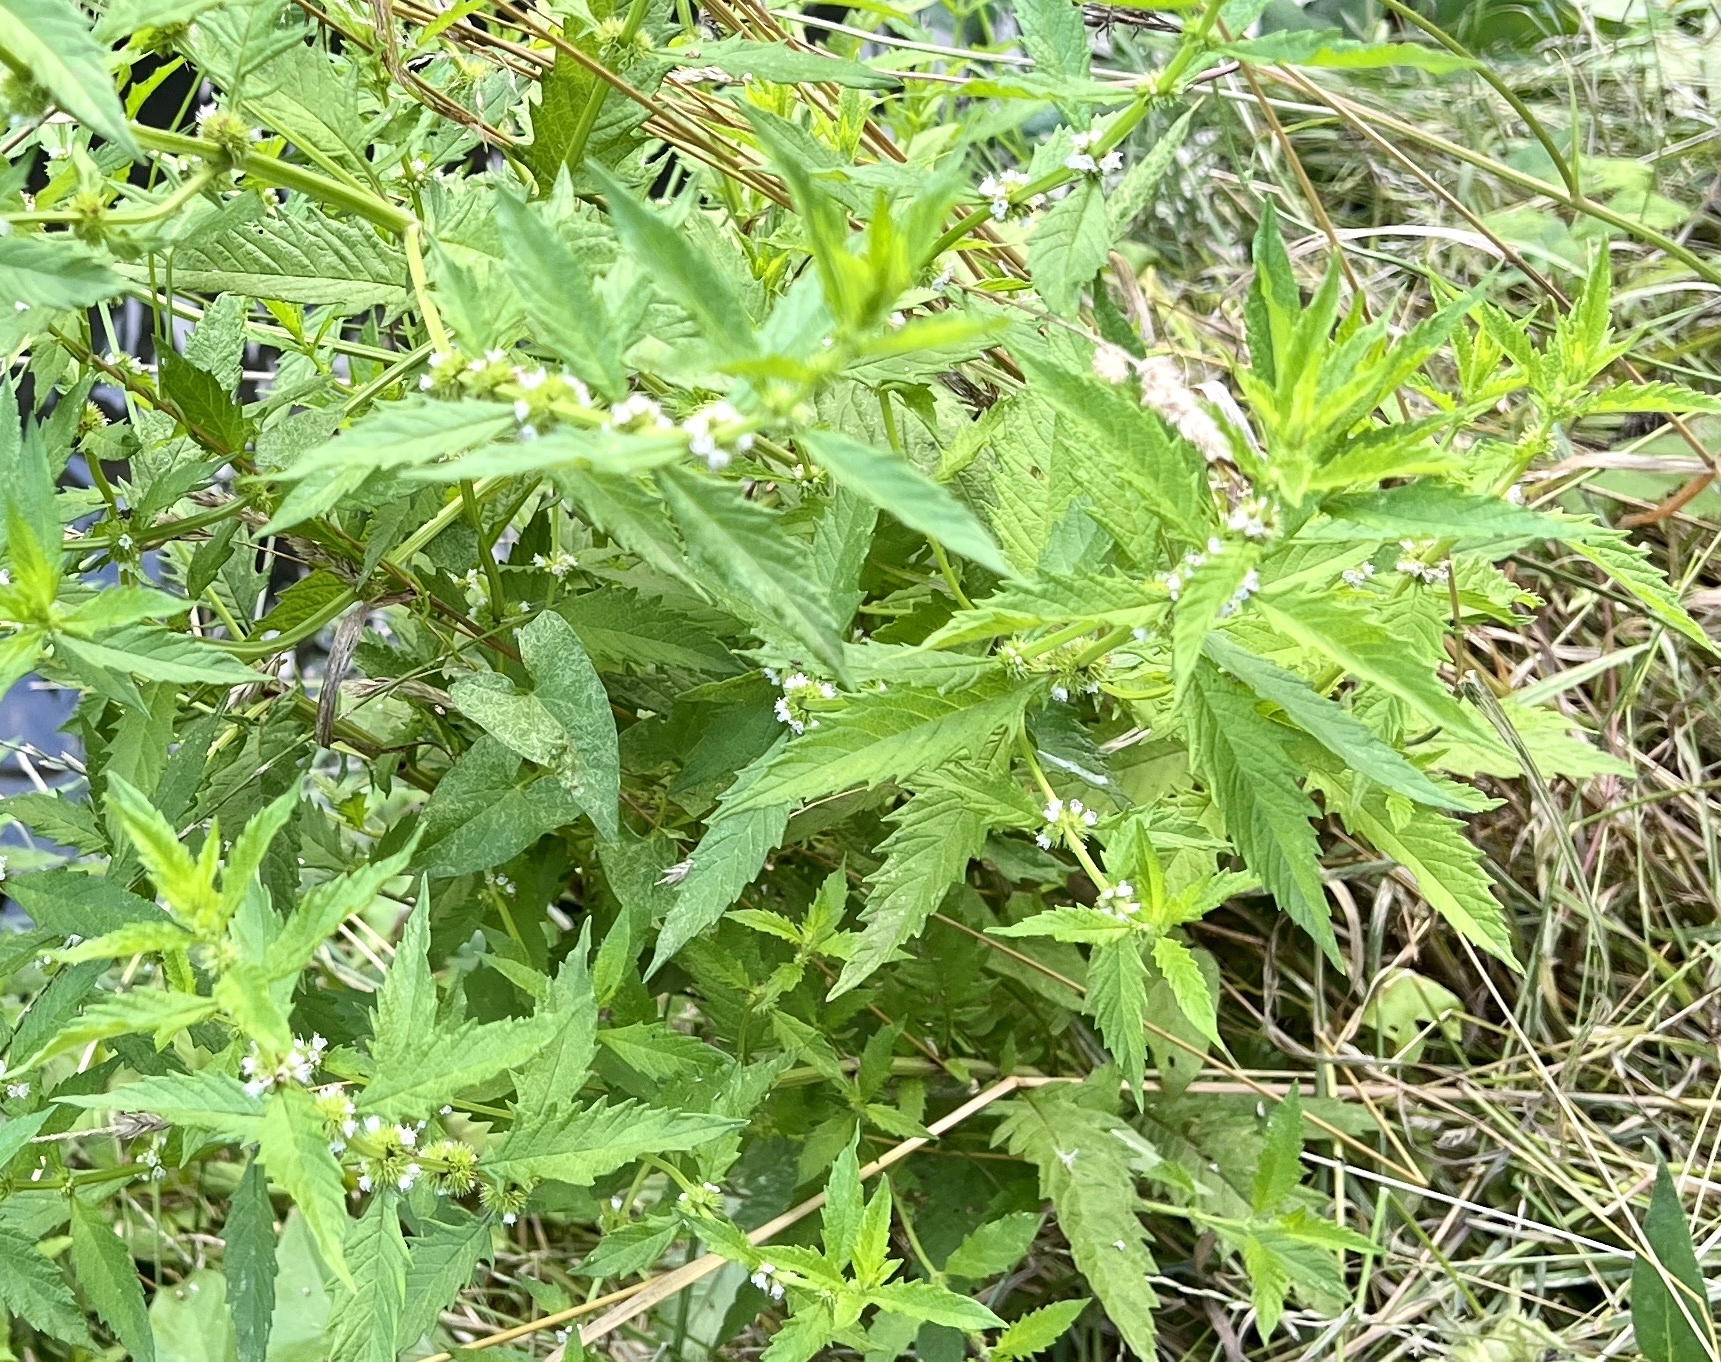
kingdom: Plantae
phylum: Tracheophyta
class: Magnoliopsida
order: Lamiales
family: Lamiaceae
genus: Lycopus
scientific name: Lycopus europaeus
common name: European bugleweed
